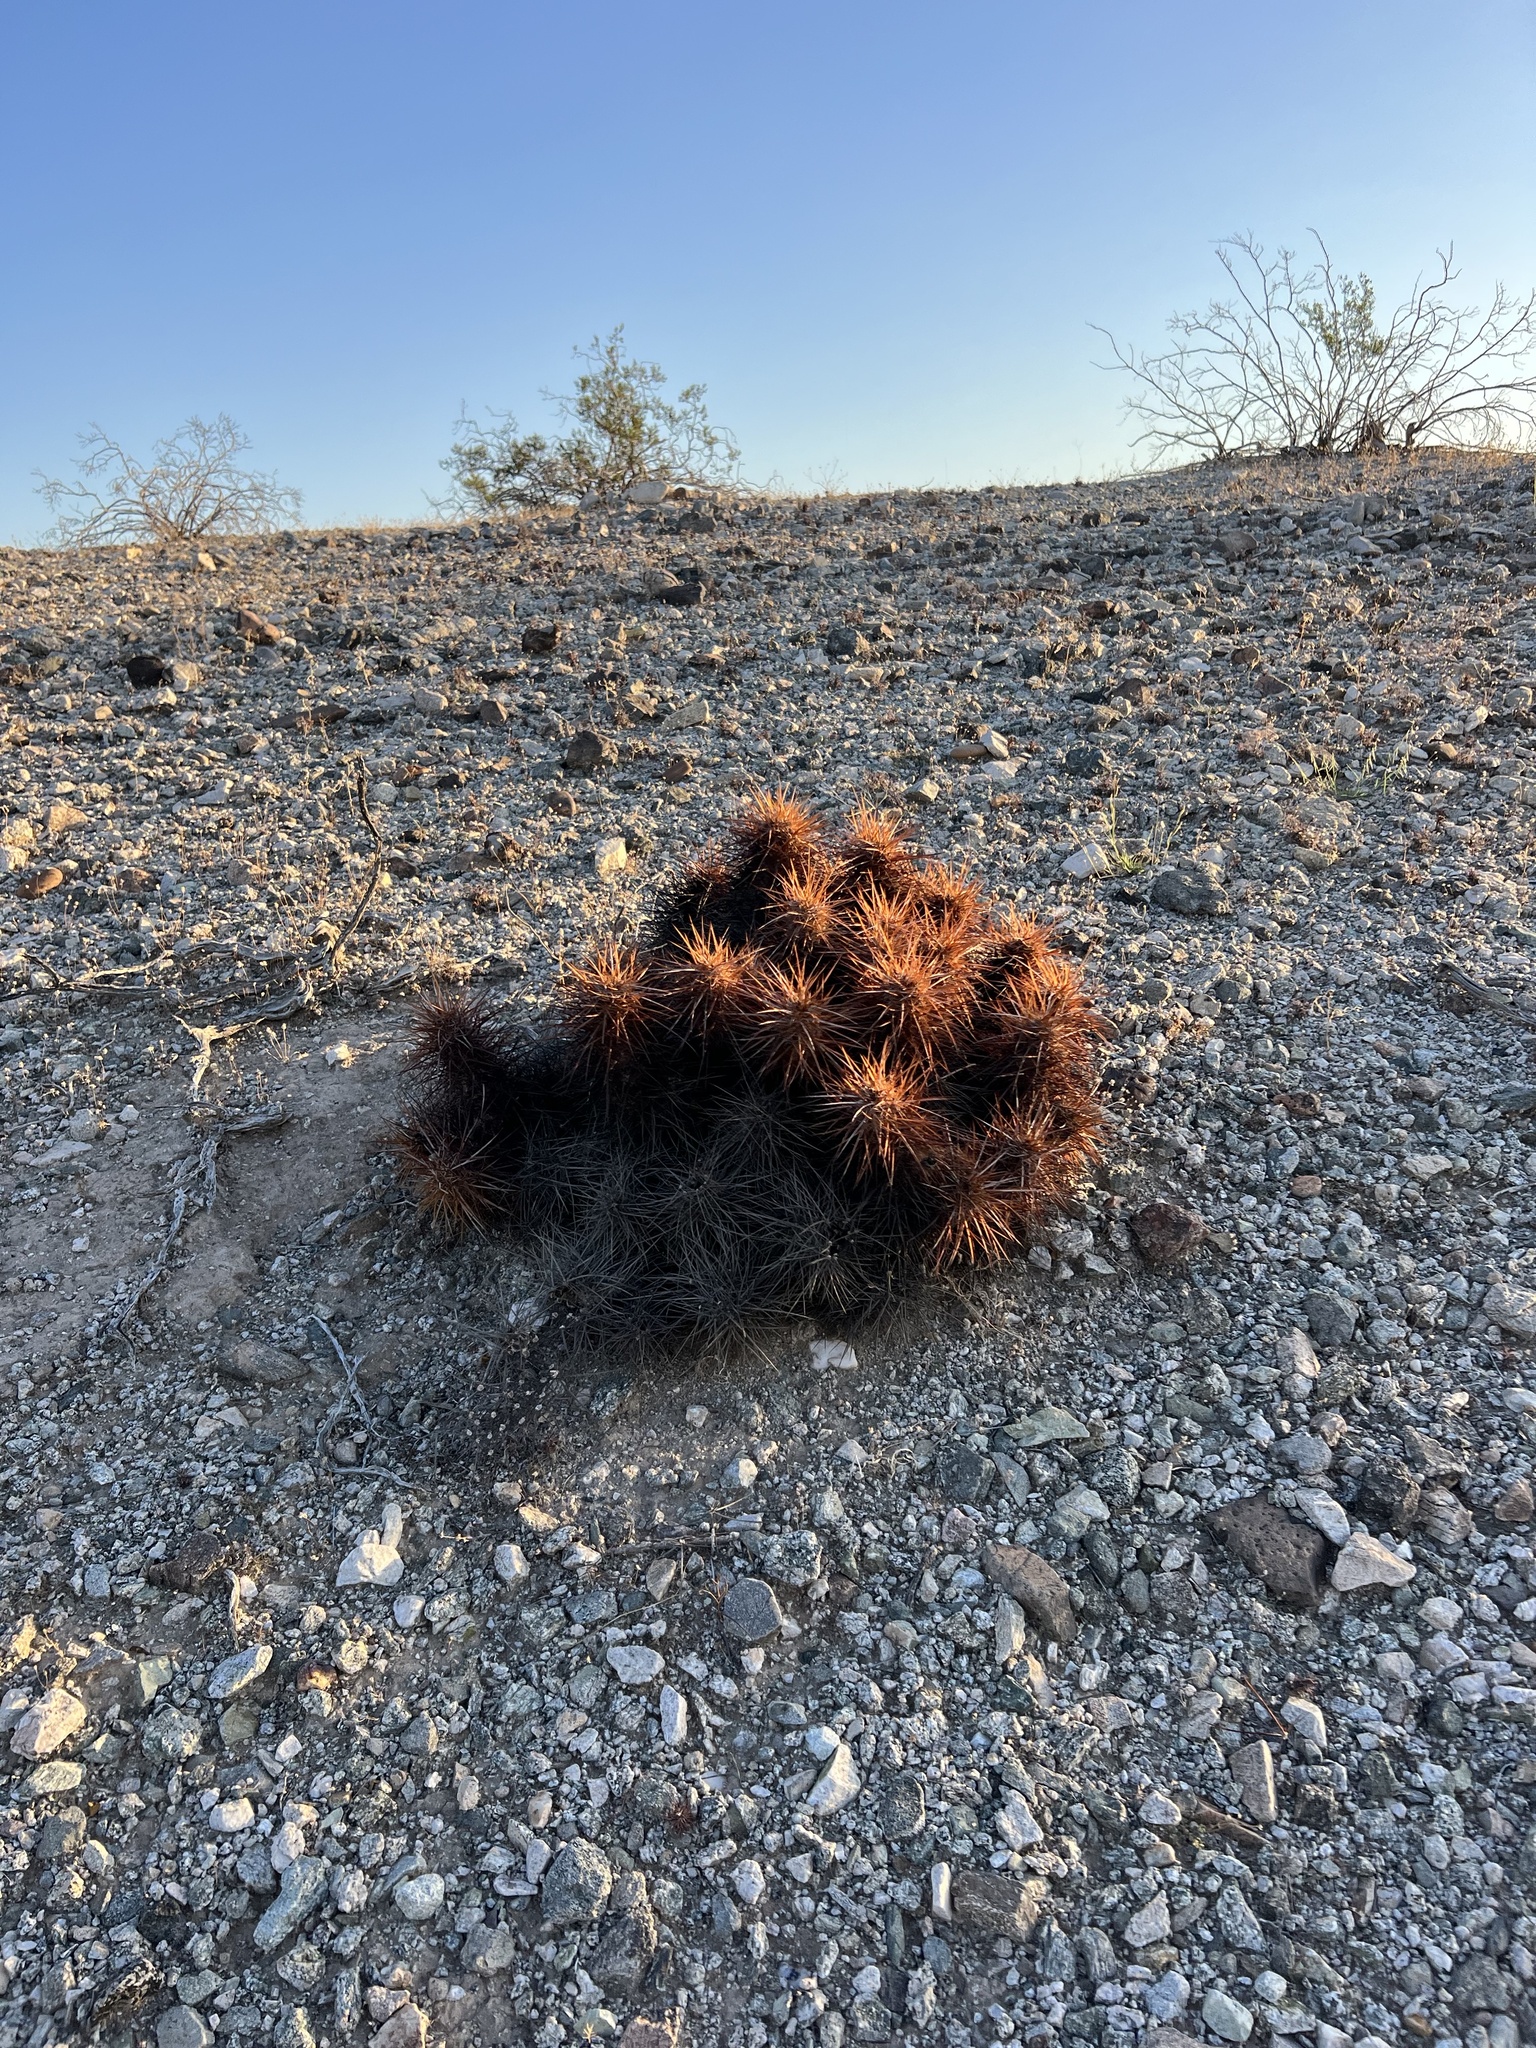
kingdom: Plantae
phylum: Tracheophyta
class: Magnoliopsida
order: Caryophyllales
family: Cactaceae
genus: Echinocereus
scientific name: Echinocereus engelmannii
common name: Engelmann's hedgehog cactus
